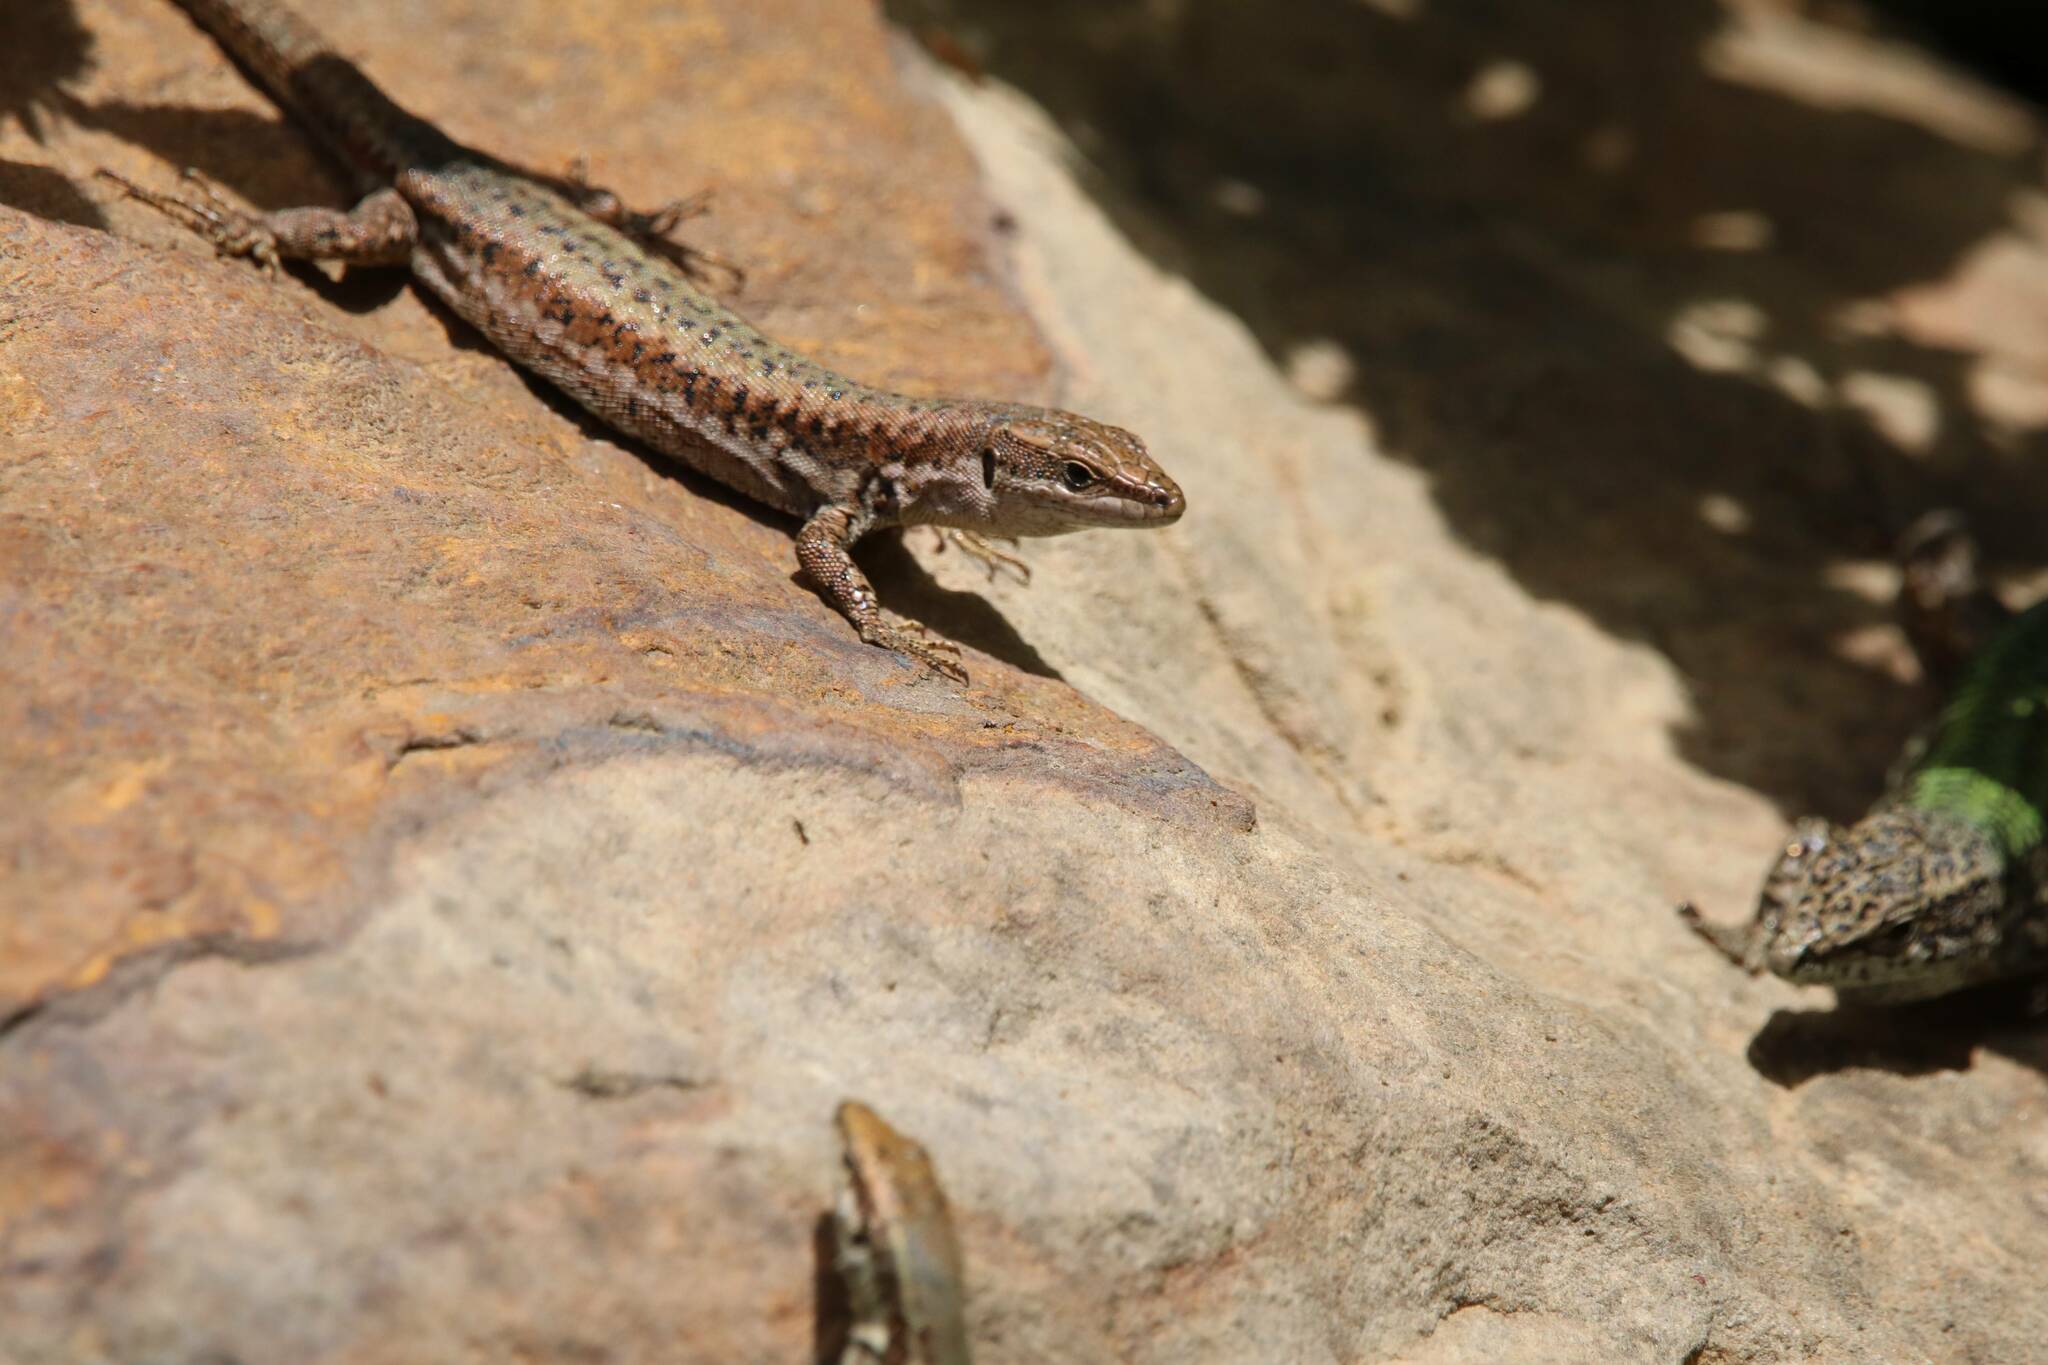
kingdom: Animalia
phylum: Chordata
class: Squamata
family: Lacertidae
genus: Podarcis
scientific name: Podarcis vaucheri
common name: Vaucher's wall lizard
